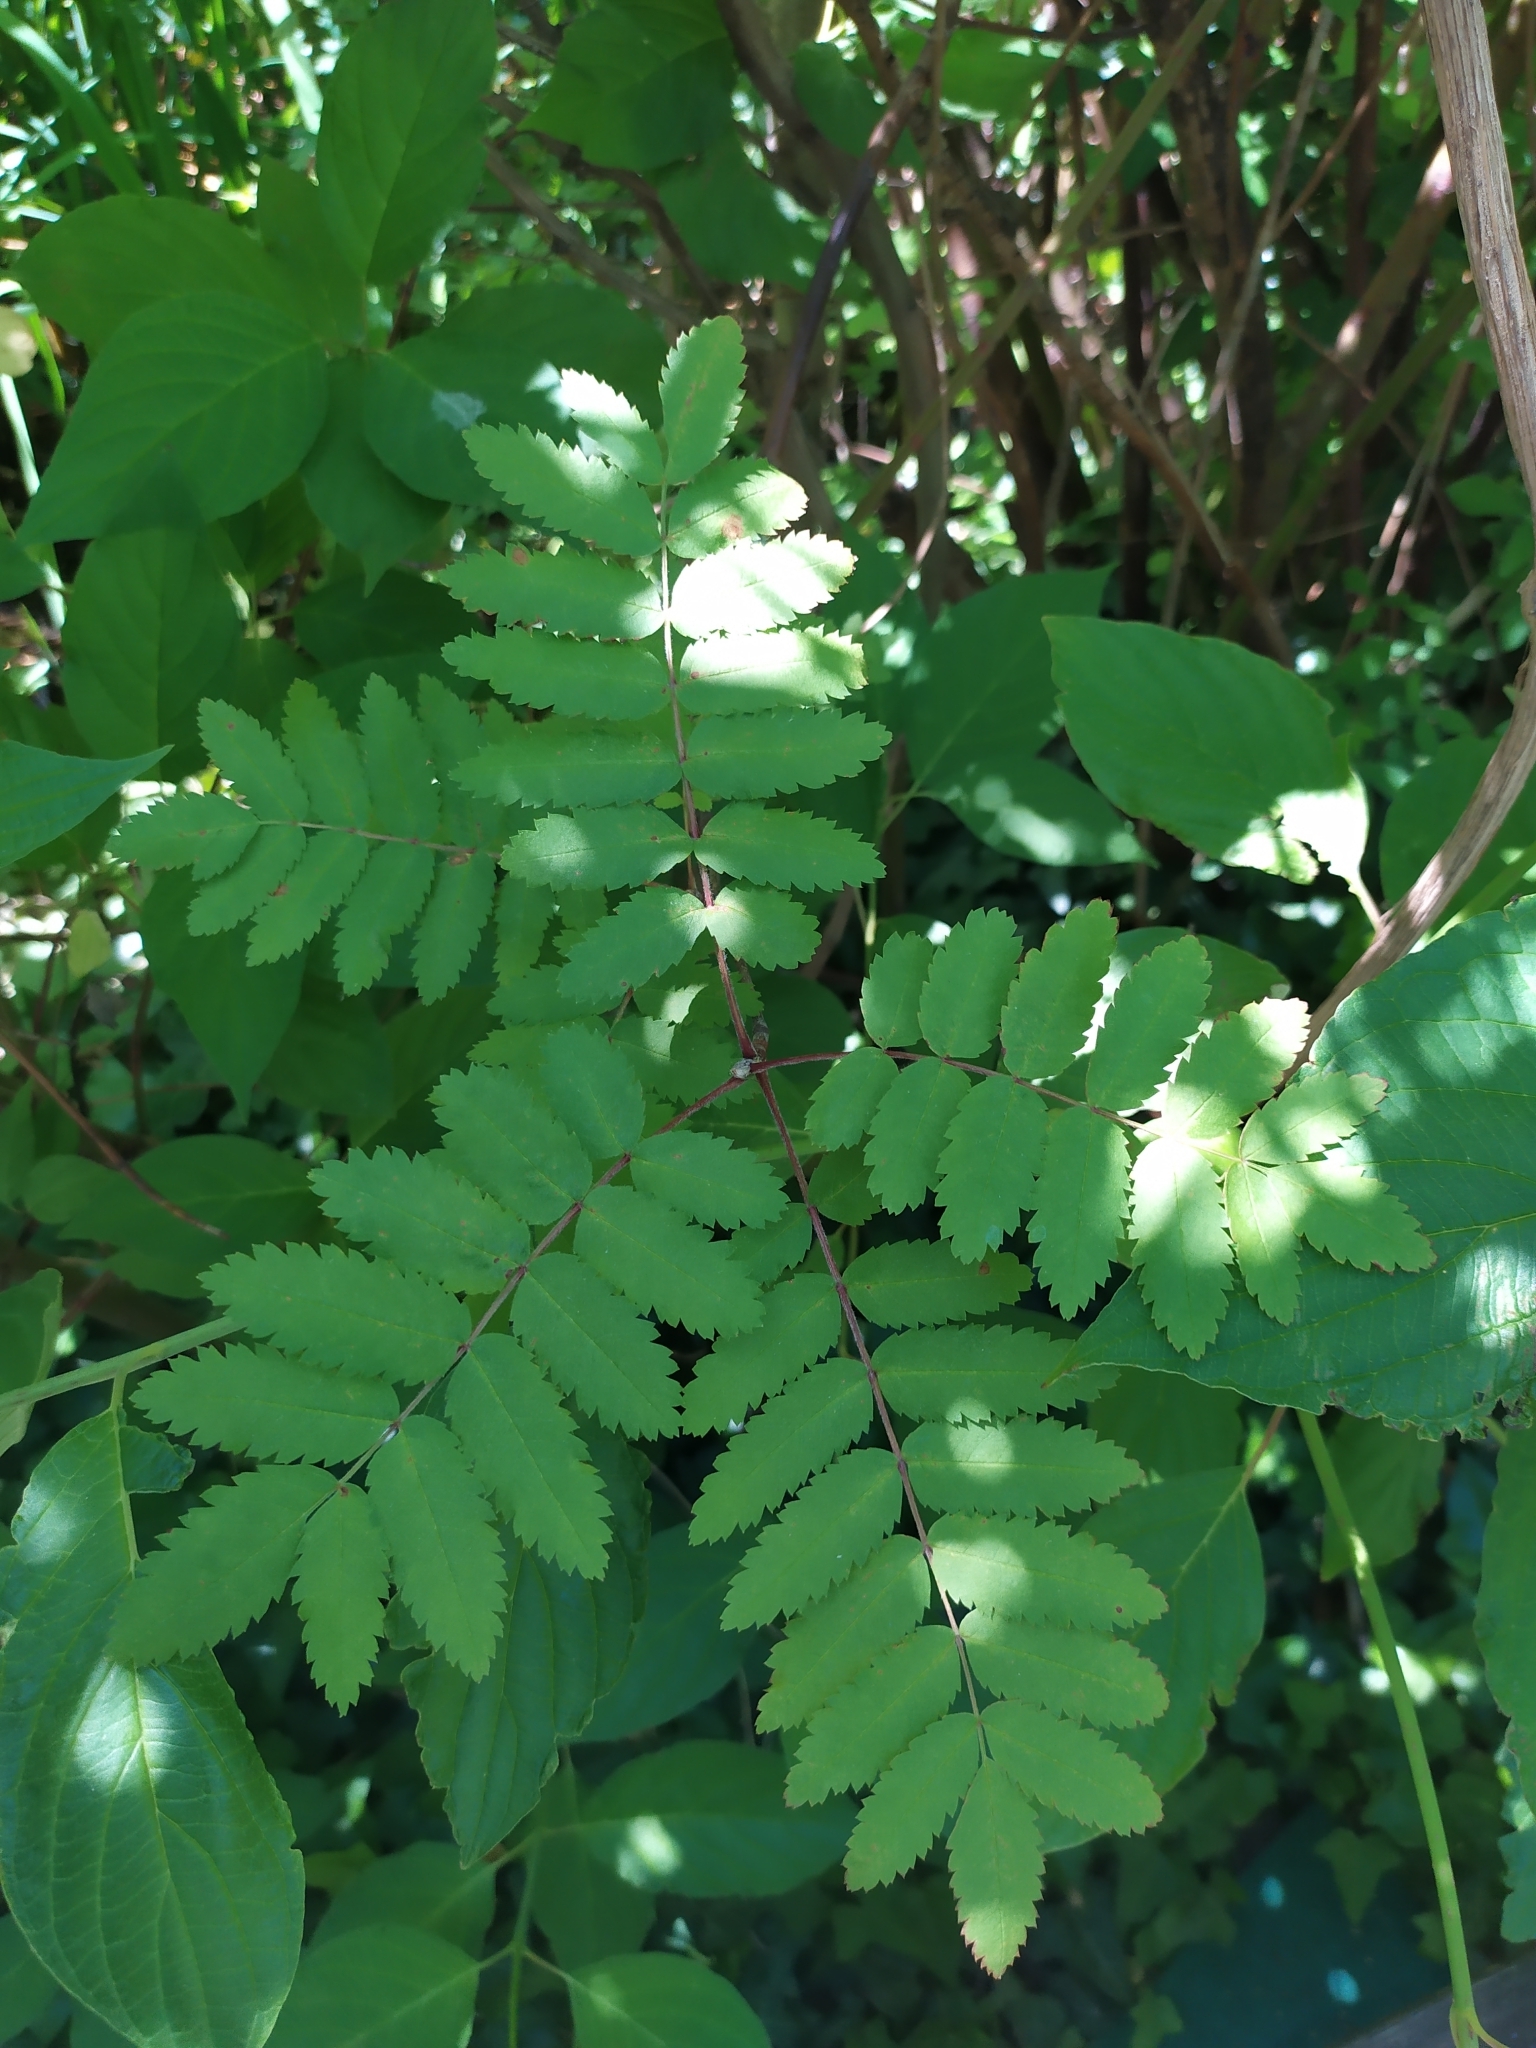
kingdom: Plantae
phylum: Tracheophyta
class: Magnoliopsida
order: Rosales
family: Rosaceae
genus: Sorbus
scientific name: Sorbus aucuparia
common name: Rowan
